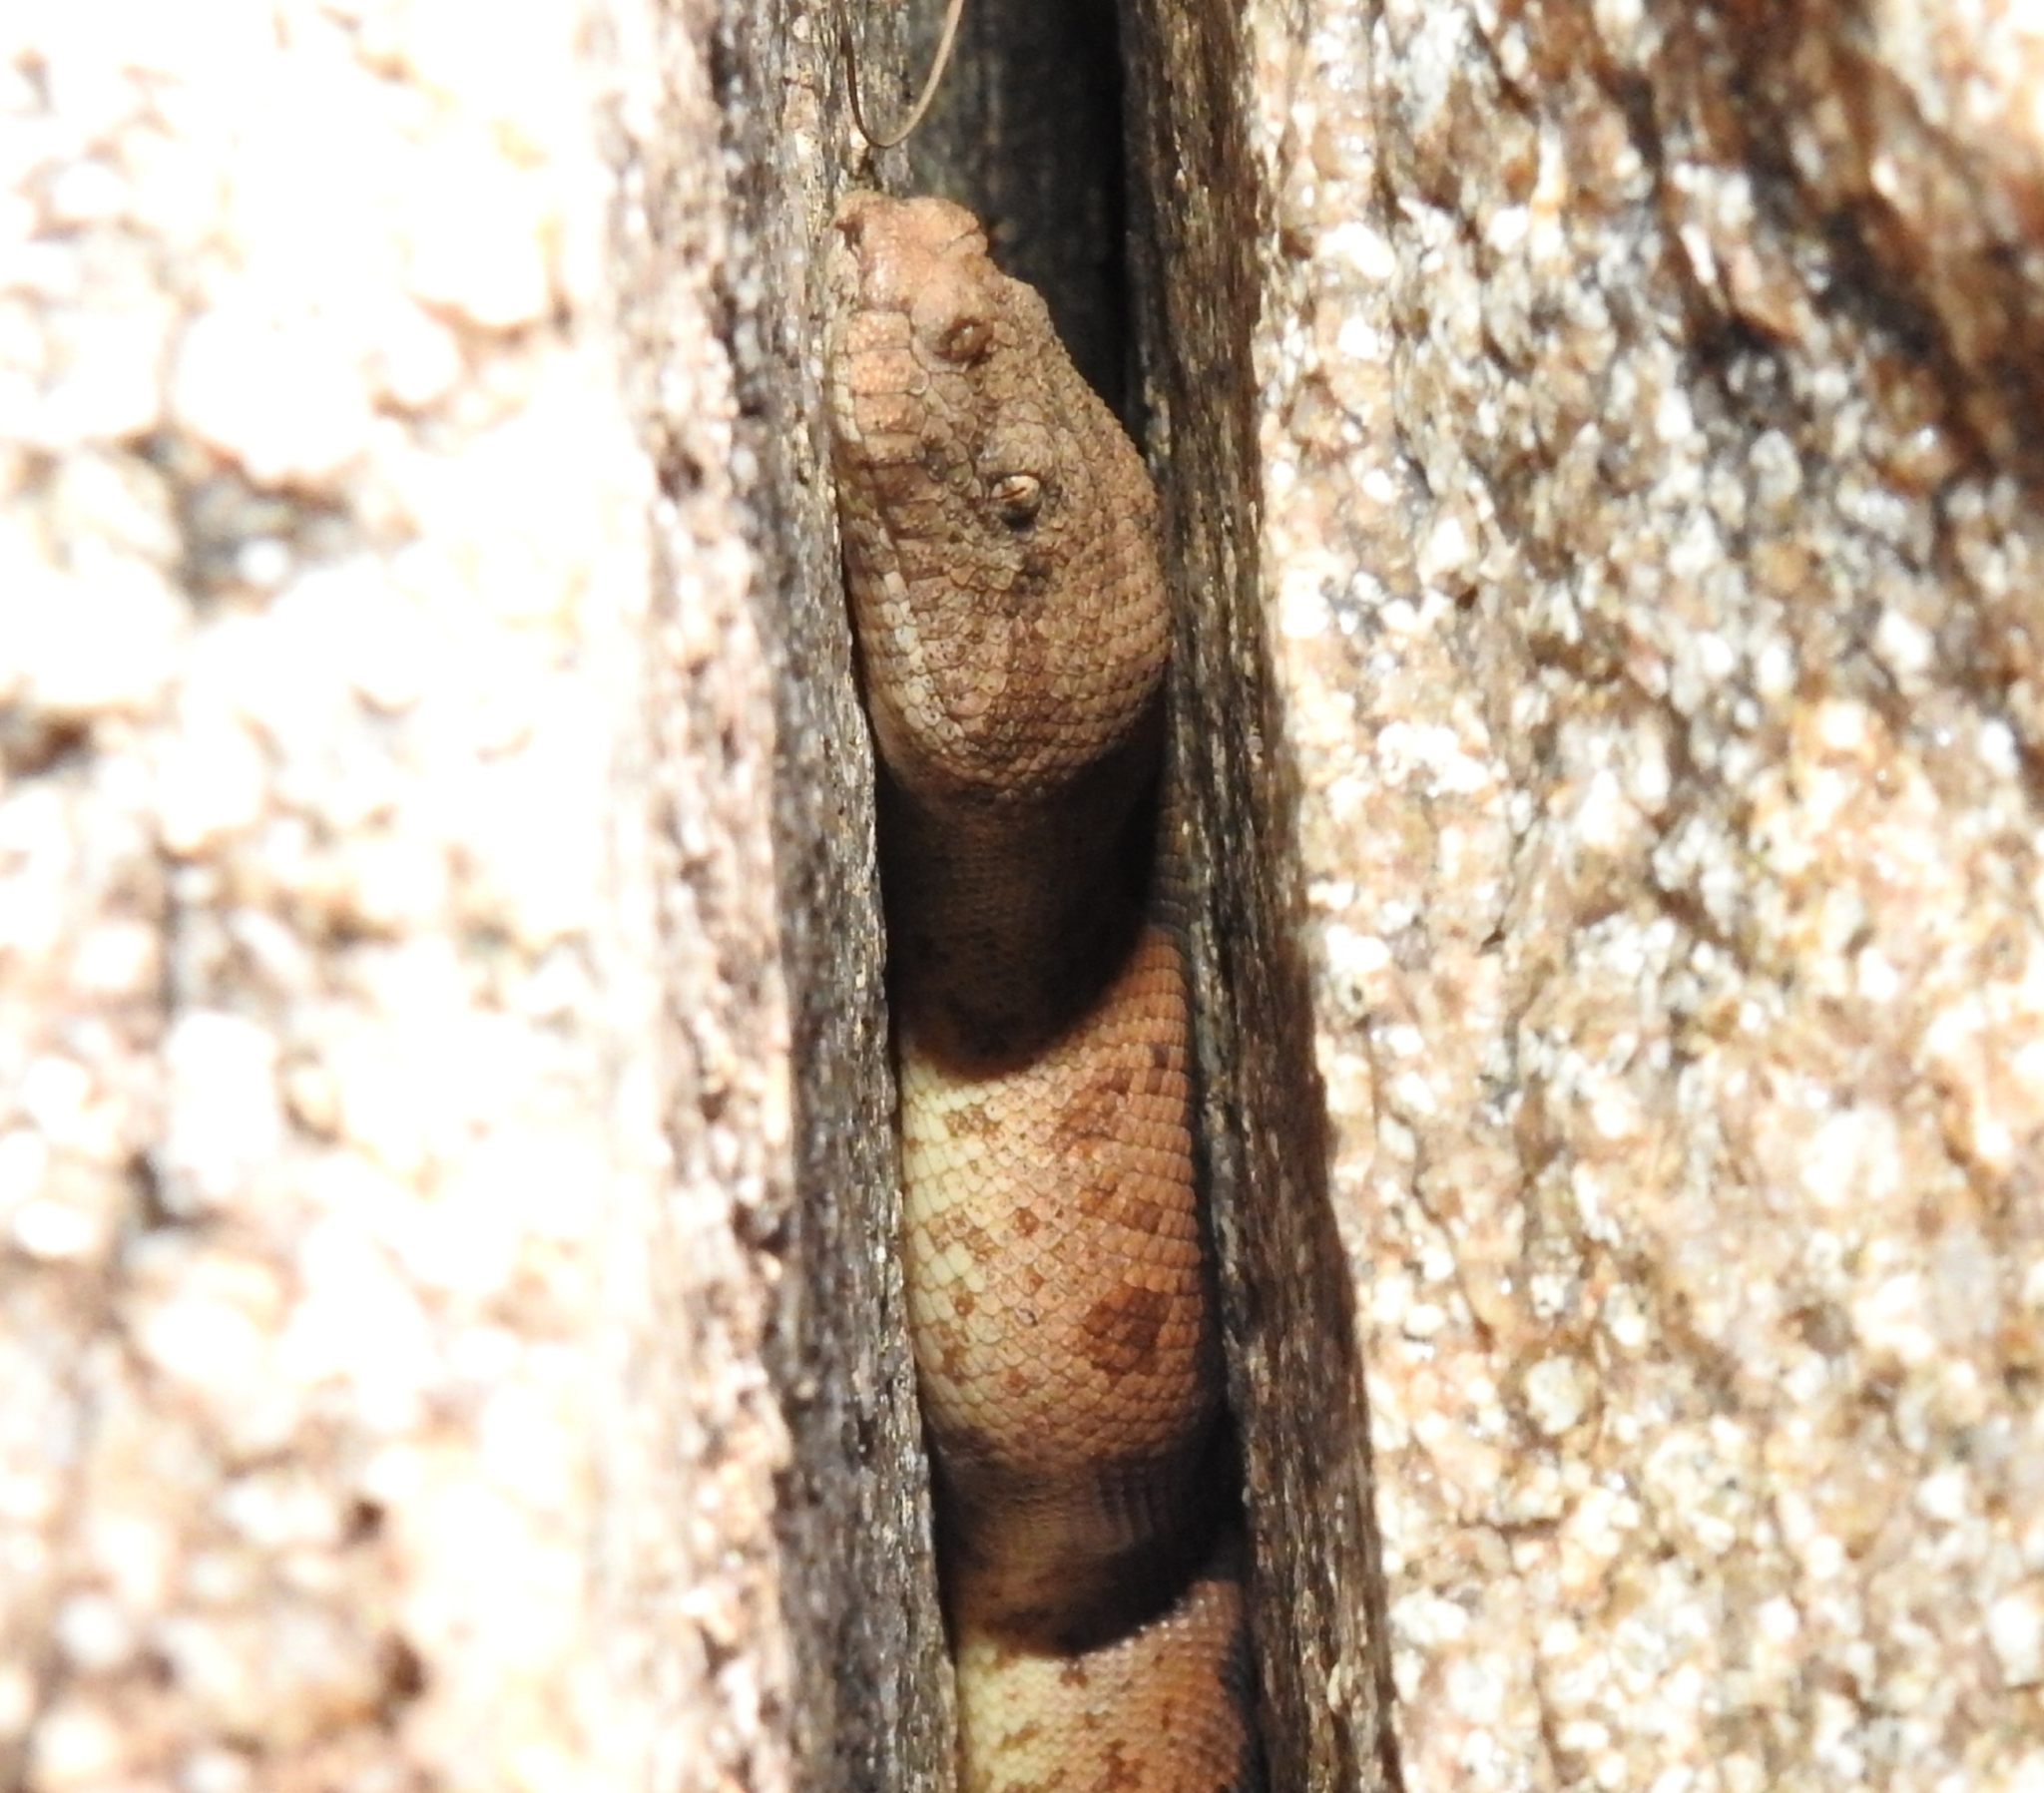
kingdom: Animalia
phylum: Chordata
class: Squamata
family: Boidae
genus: Eryx
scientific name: Eryx conicus
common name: Rough-tailed sand boa
